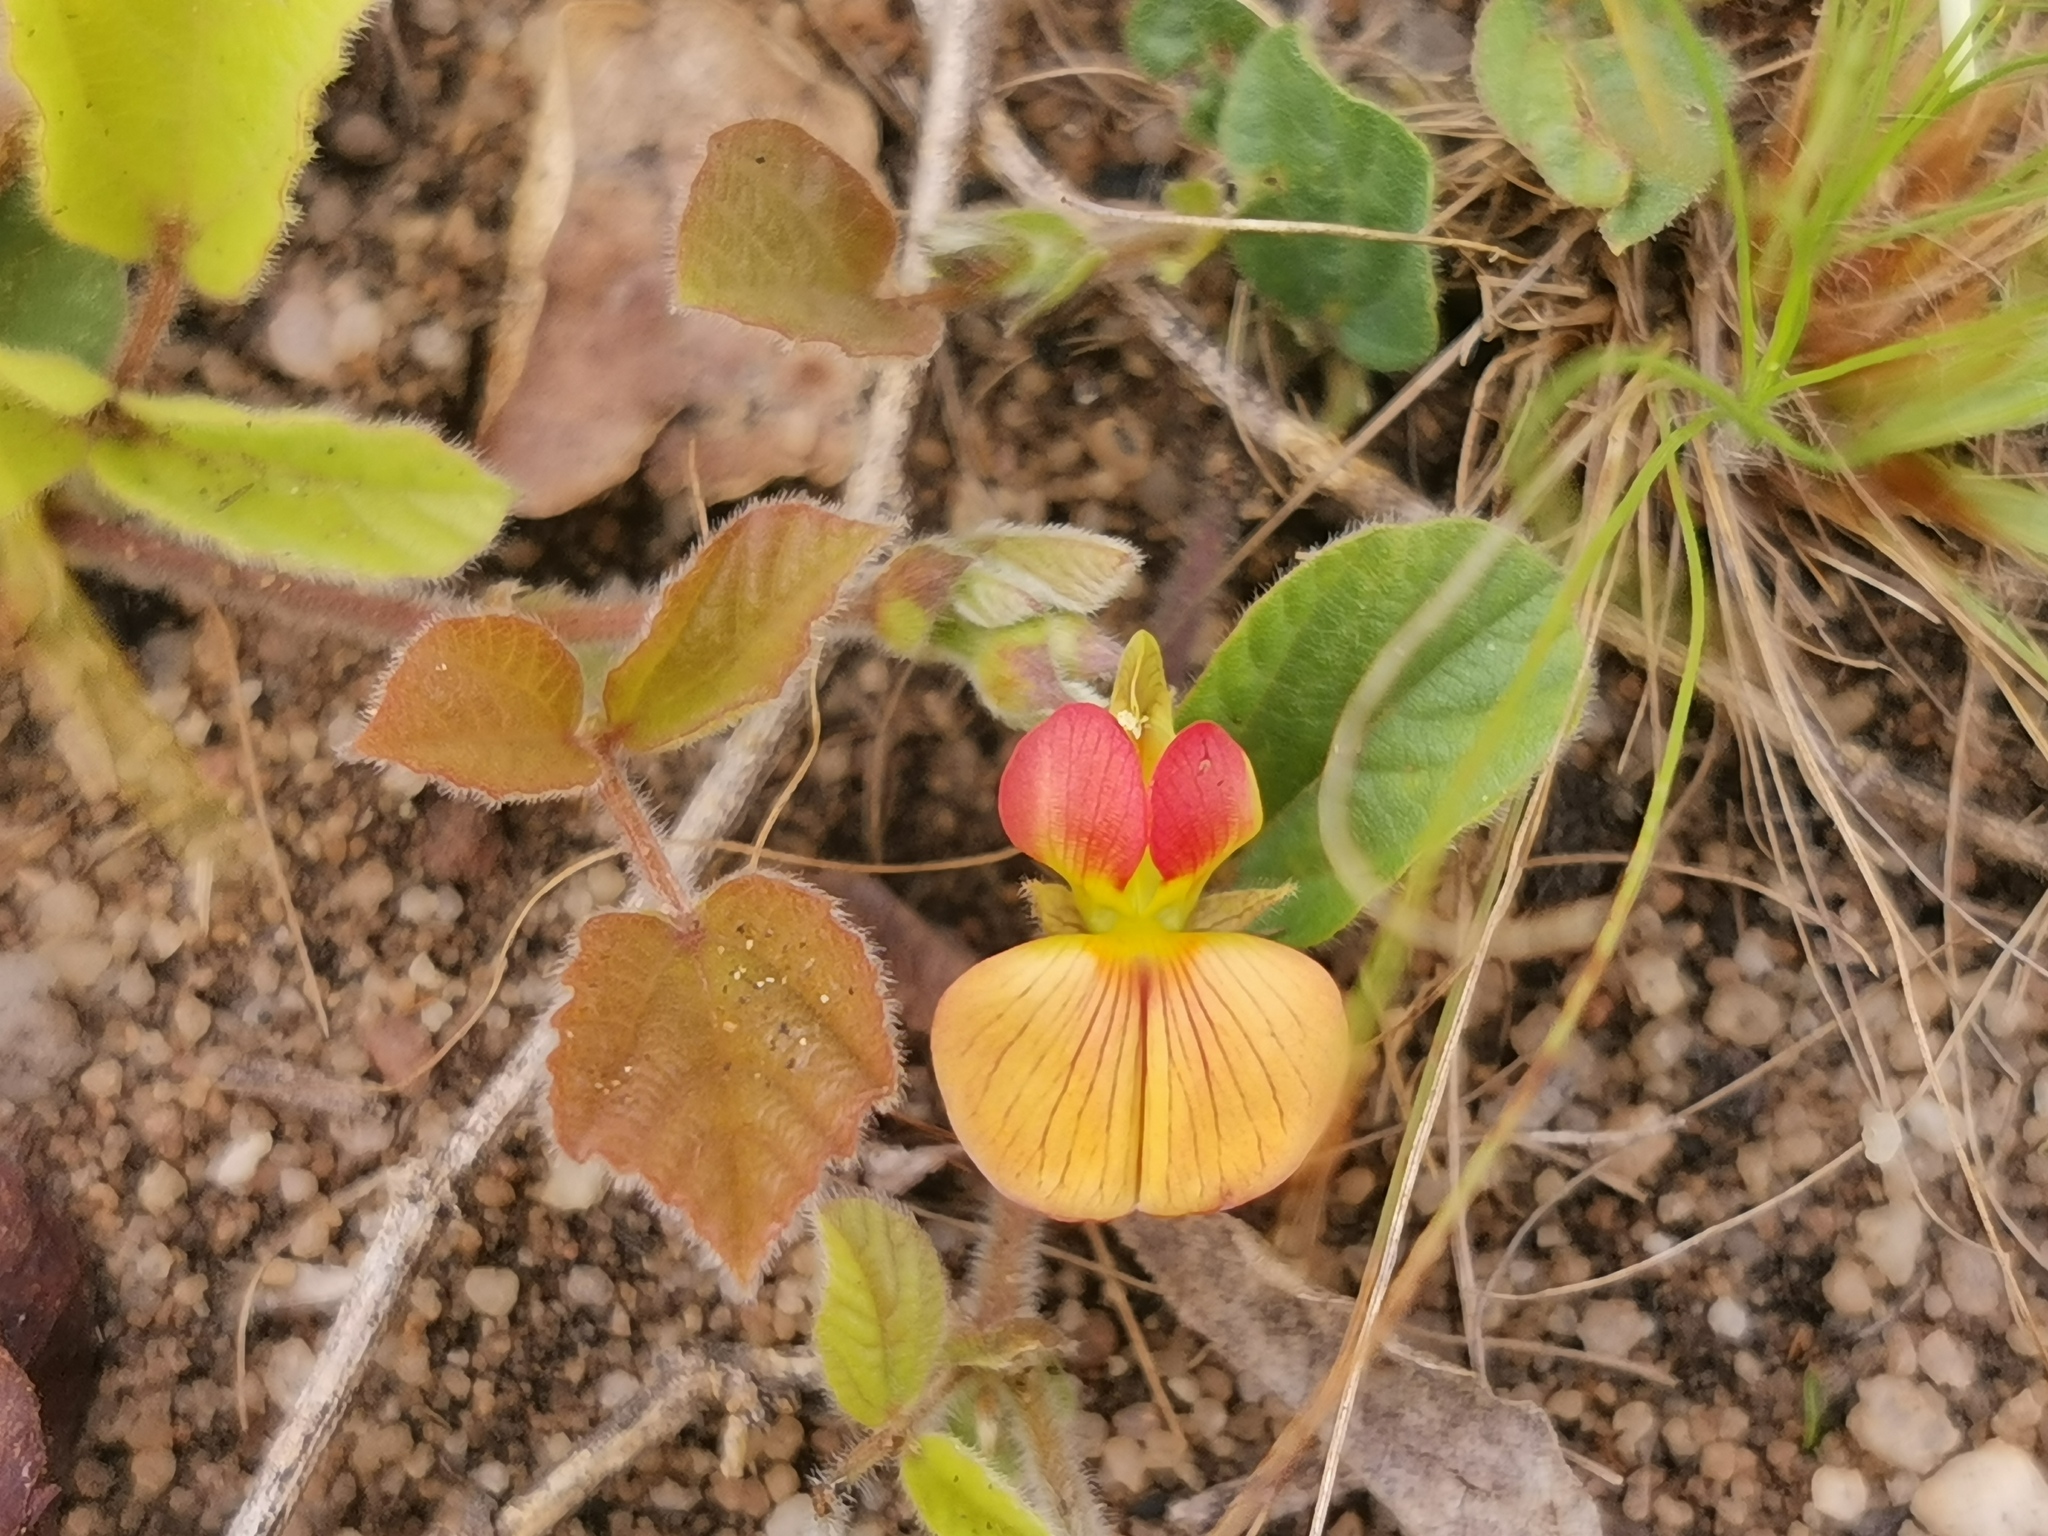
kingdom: Plantae
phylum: Tracheophyta
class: Magnoliopsida
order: Fabales
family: Fabaceae
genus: Rhynchosia
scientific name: Rhynchosia monophylla
